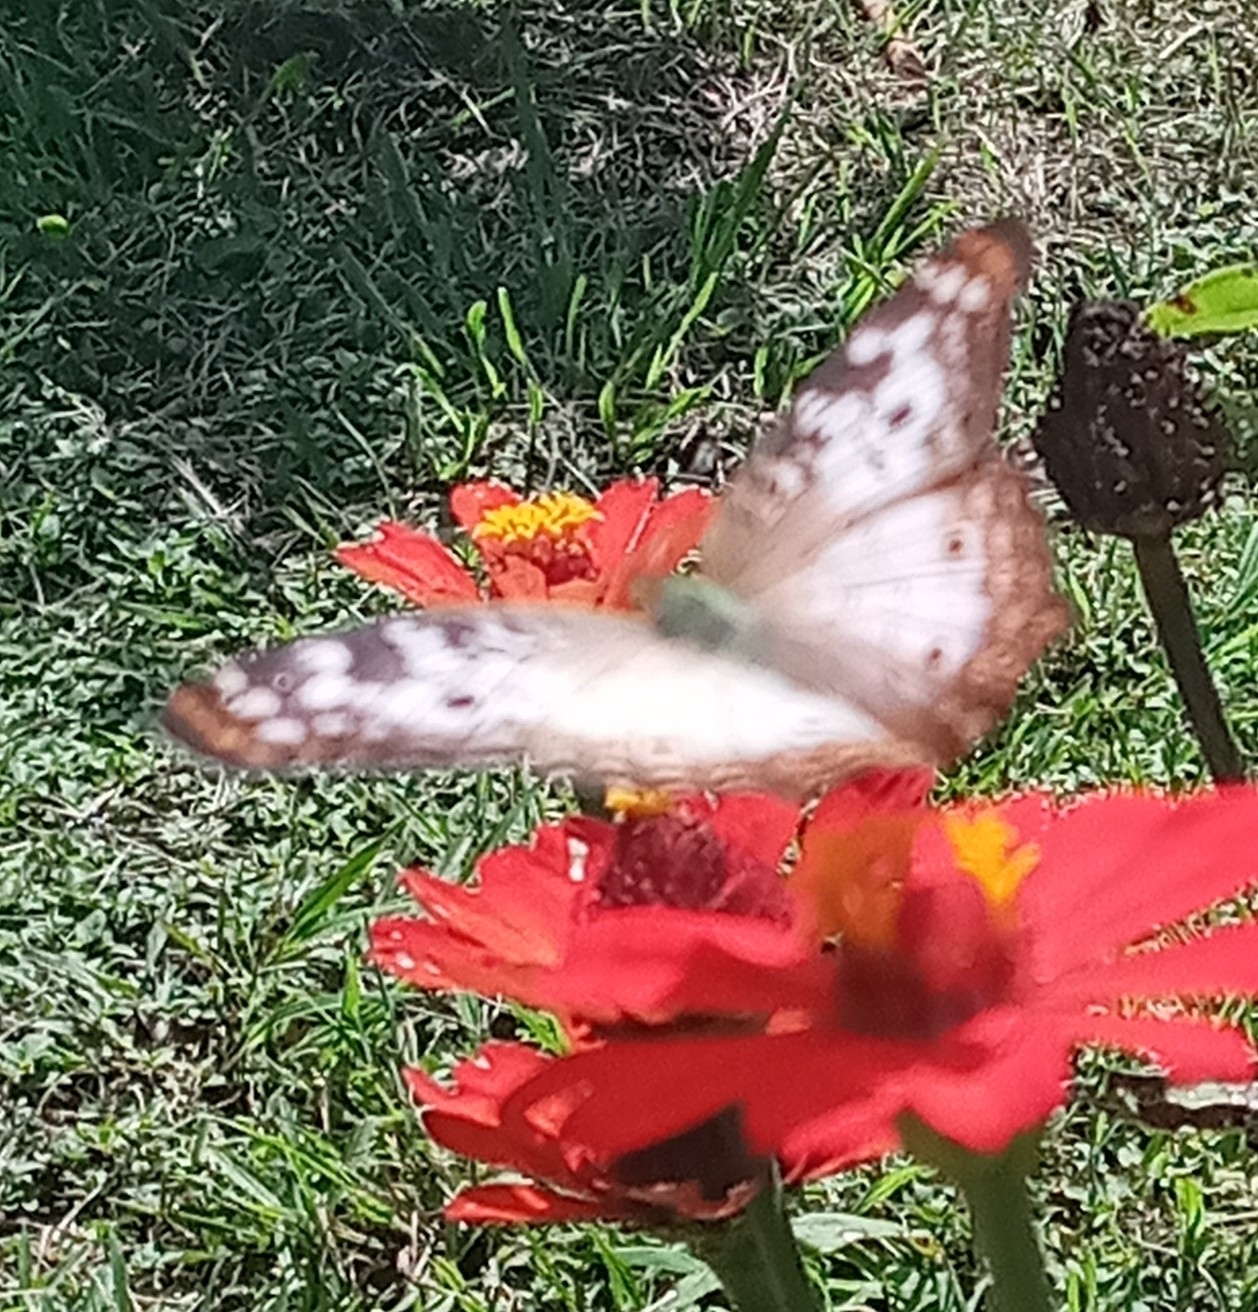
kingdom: Animalia
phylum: Arthropoda
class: Insecta
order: Lepidoptera
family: Nymphalidae
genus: Anartia
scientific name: Anartia jatrophae
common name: White peacock
